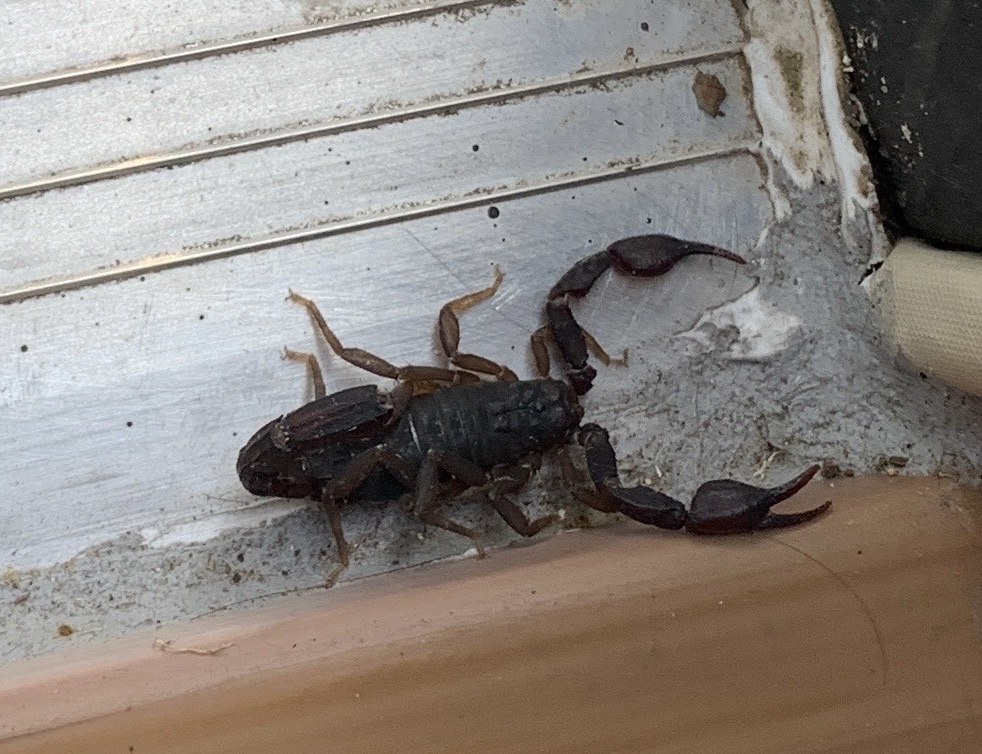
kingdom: Animalia
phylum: Arthropoda
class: Arachnida
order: Scorpiones
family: Vaejovidae
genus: Pseudouroctonus
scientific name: Pseudouroctonus reddelli
